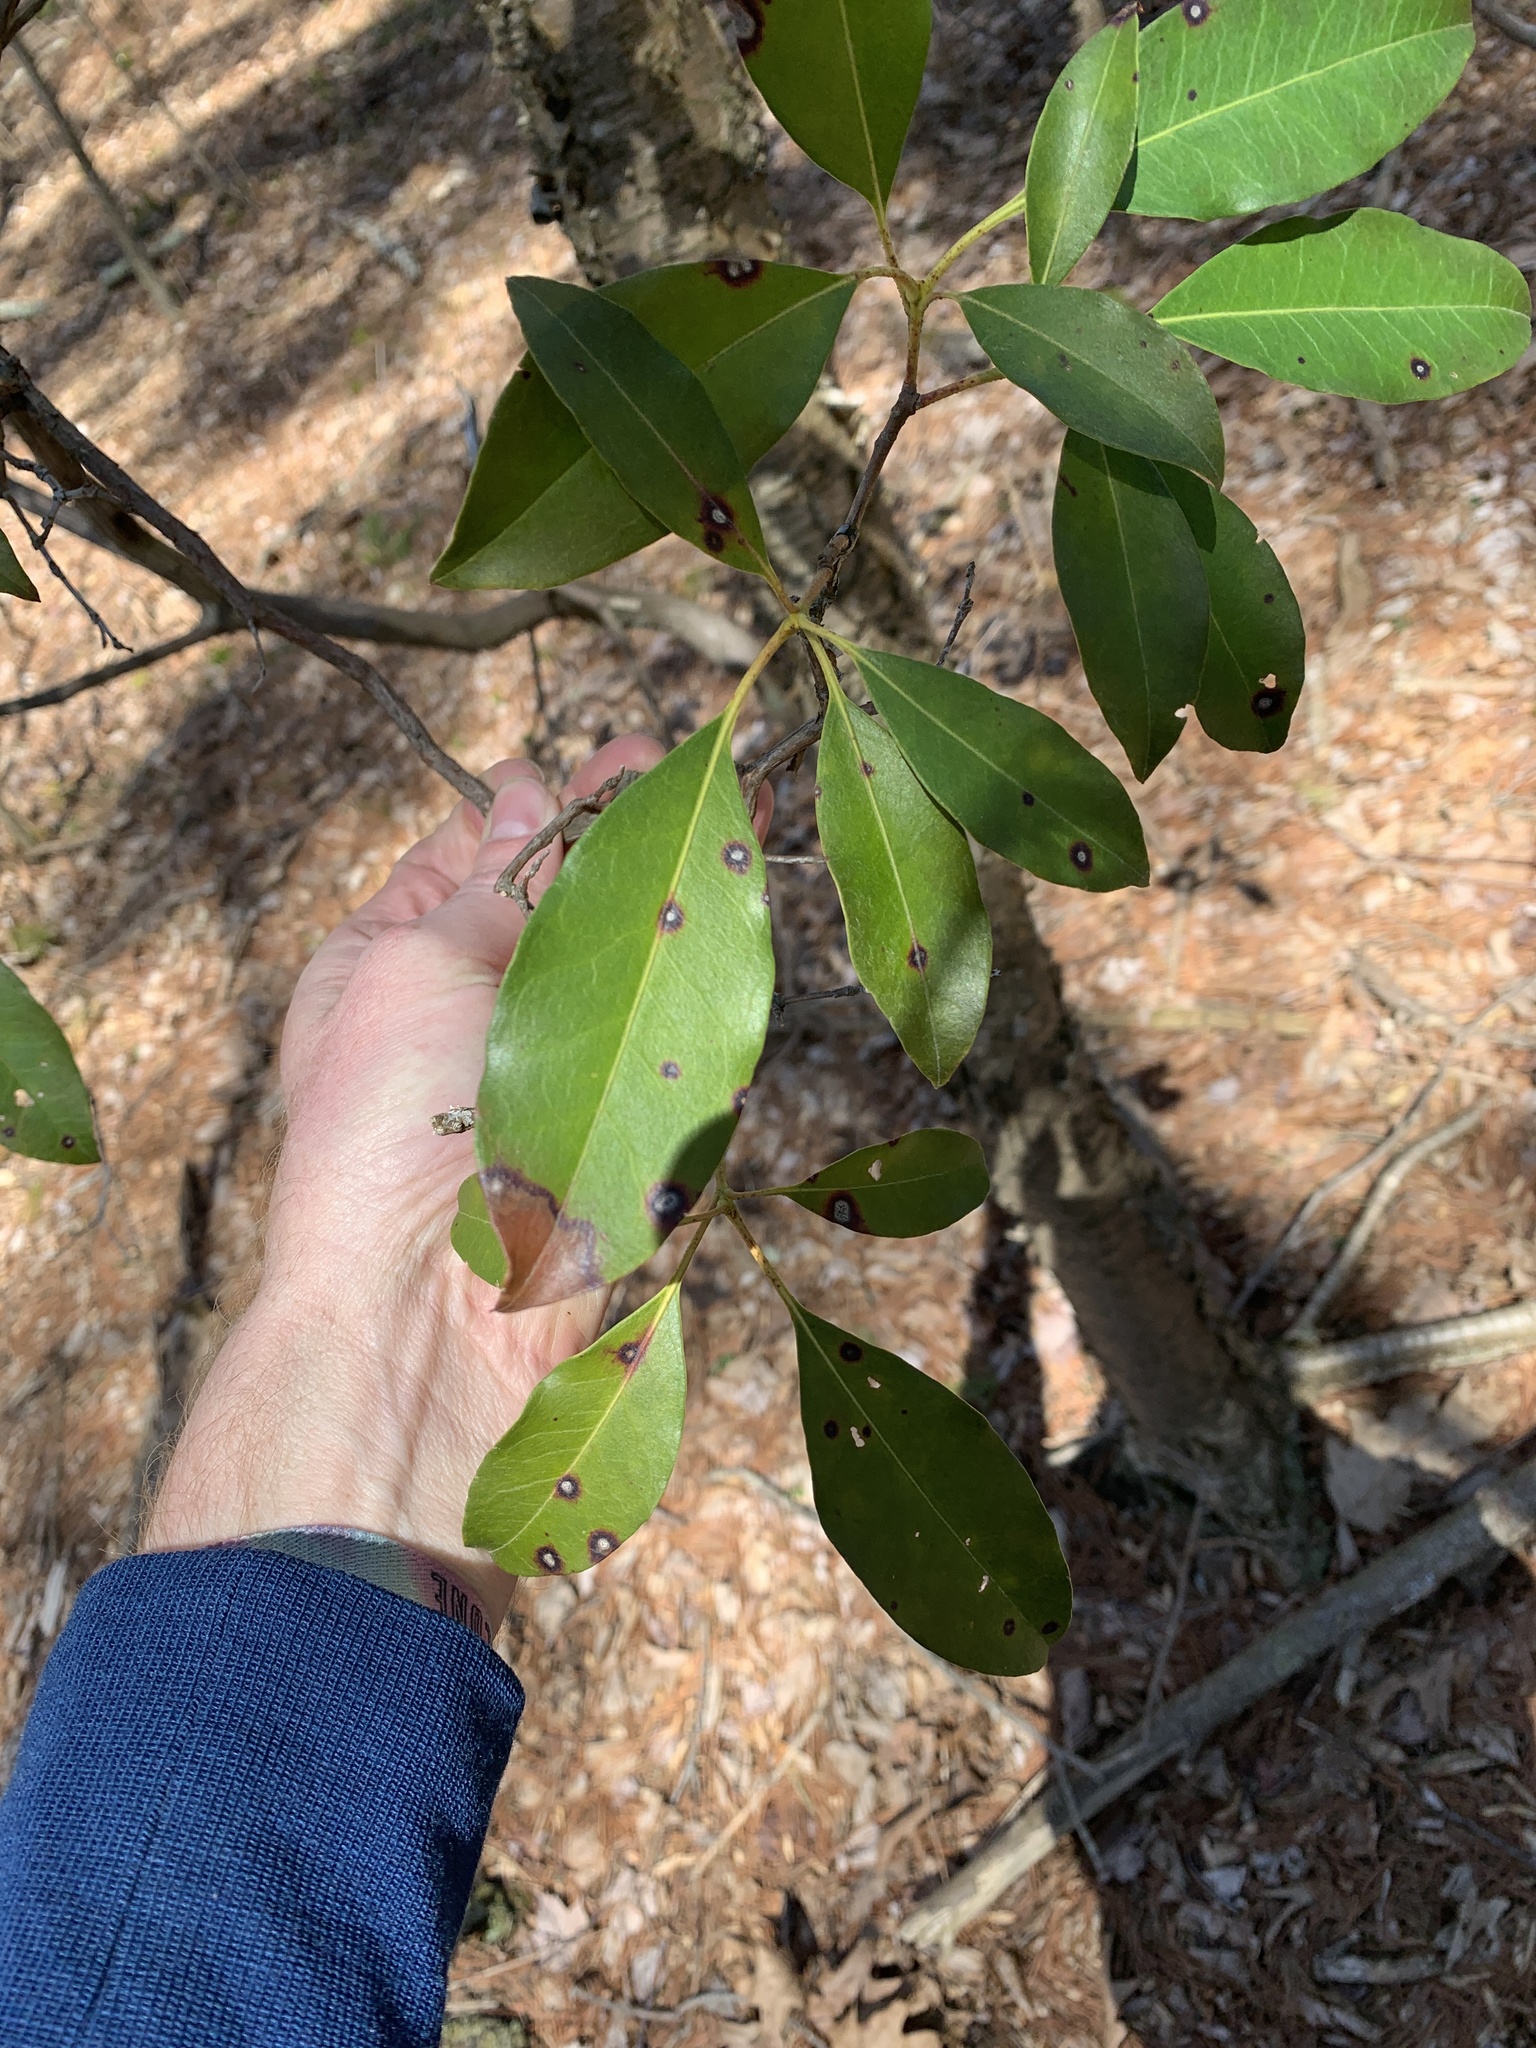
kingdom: Plantae
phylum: Tracheophyta
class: Magnoliopsida
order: Ericales
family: Ericaceae
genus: Kalmia
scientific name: Kalmia latifolia
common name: Mountain-laurel
